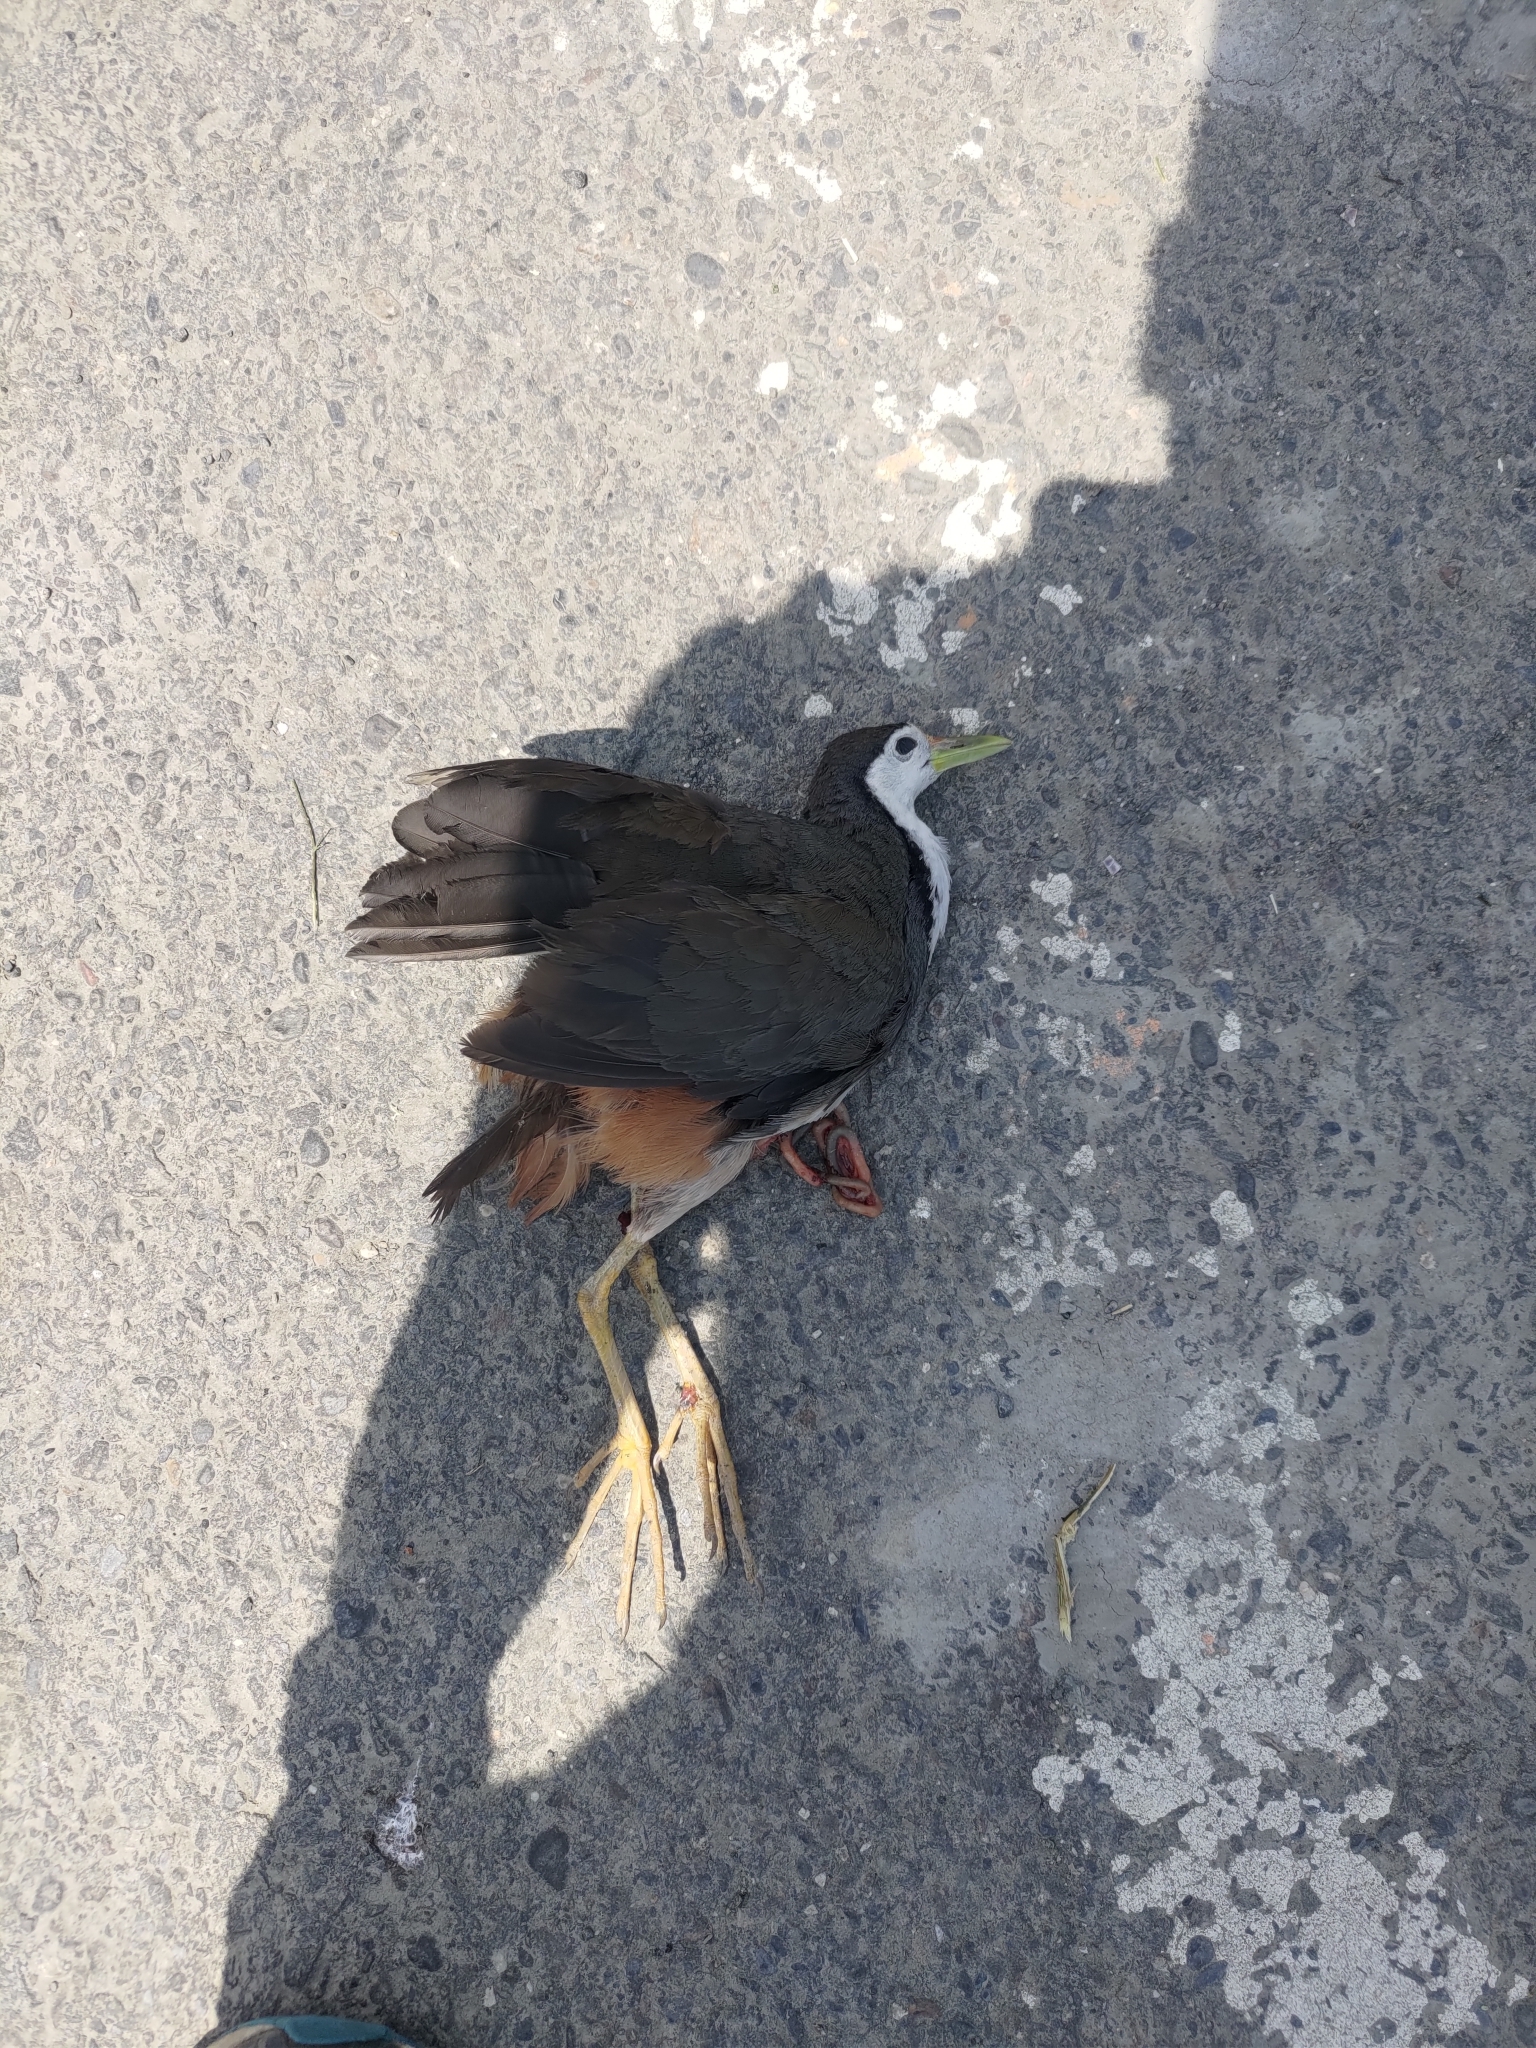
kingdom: Animalia
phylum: Chordata
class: Aves
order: Gruiformes
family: Rallidae
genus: Amaurornis
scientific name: Amaurornis phoenicurus
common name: White-breasted waterhen
